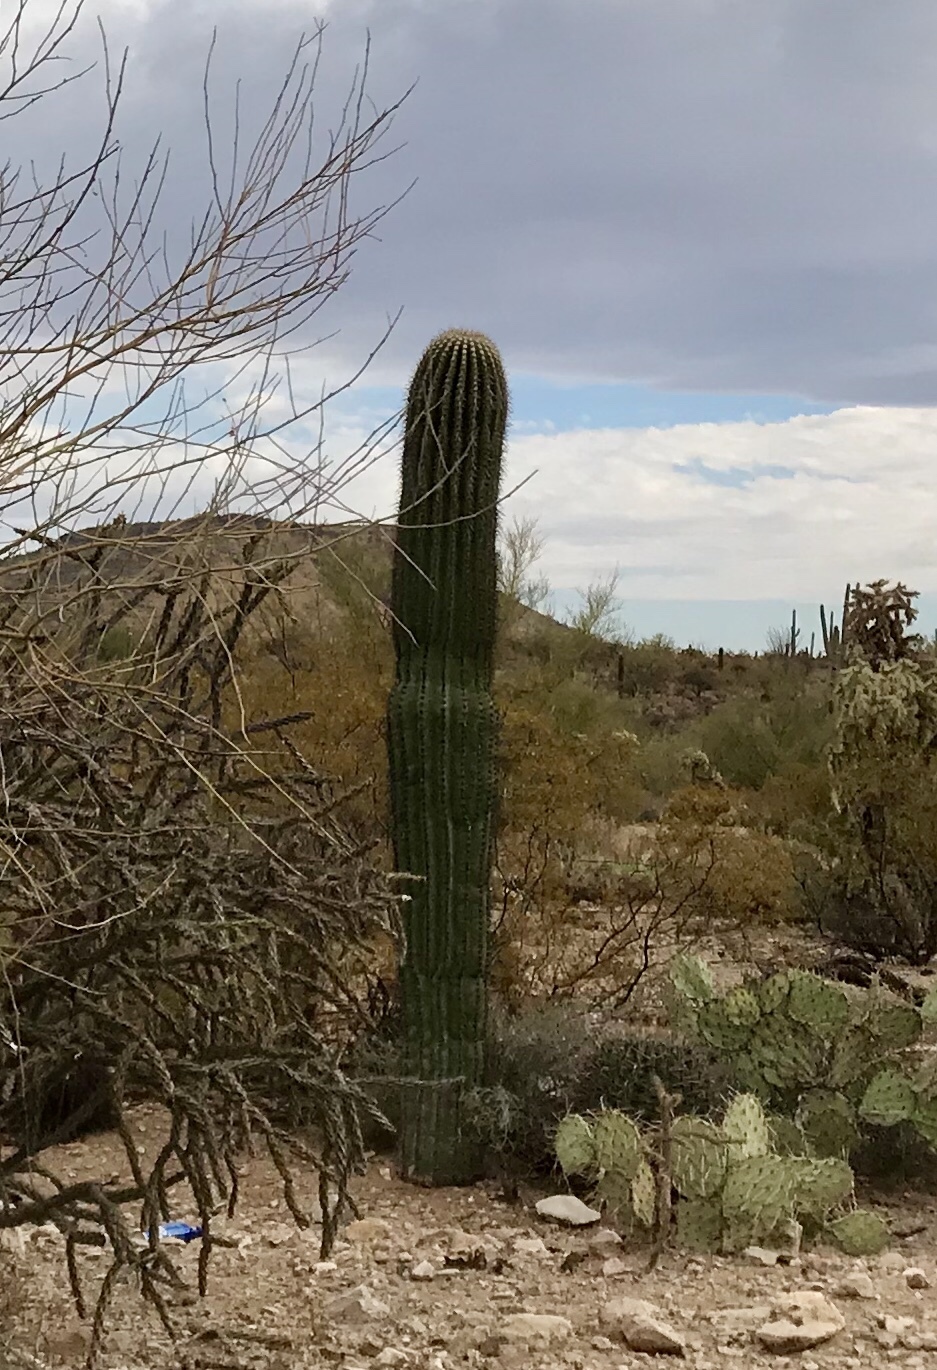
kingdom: Plantae
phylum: Tracheophyta
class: Magnoliopsida
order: Caryophyllales
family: Cactaceae
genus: Carnegiea
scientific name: Carnegiea gigantea
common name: Saguaro
